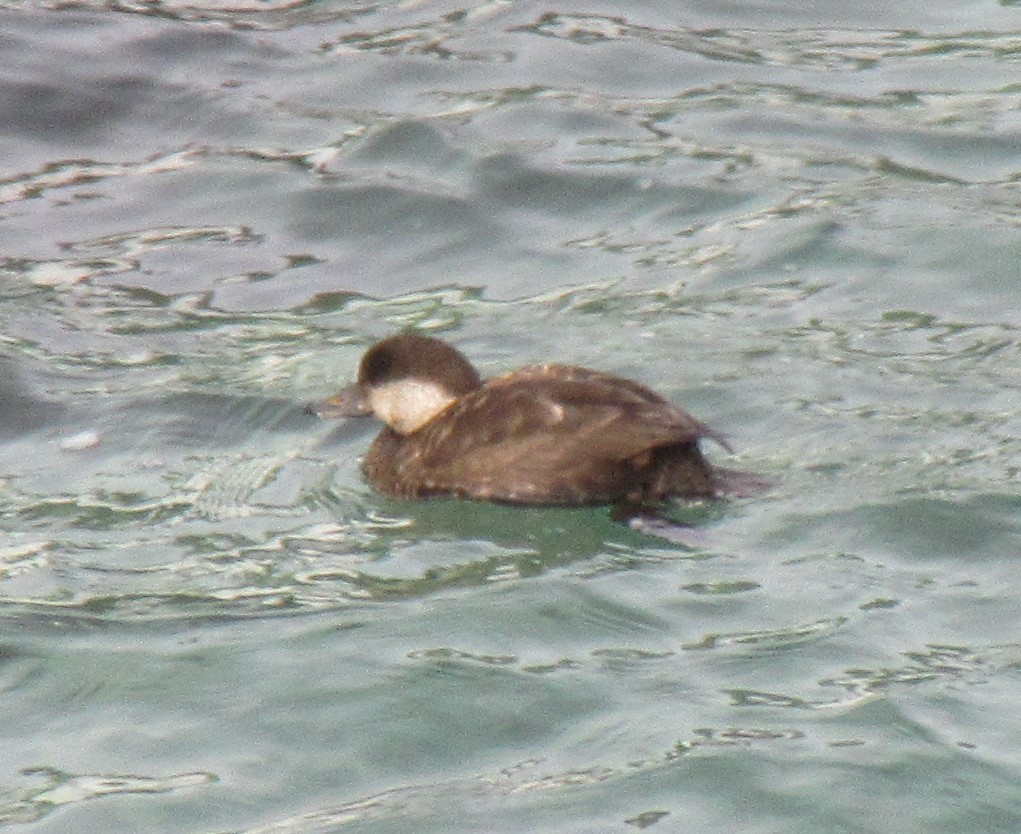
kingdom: Animalia
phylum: Chordata
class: Aves
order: Anseriformes
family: Anatidae
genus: Melanitta
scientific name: Melanitta americana
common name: Black scoter
